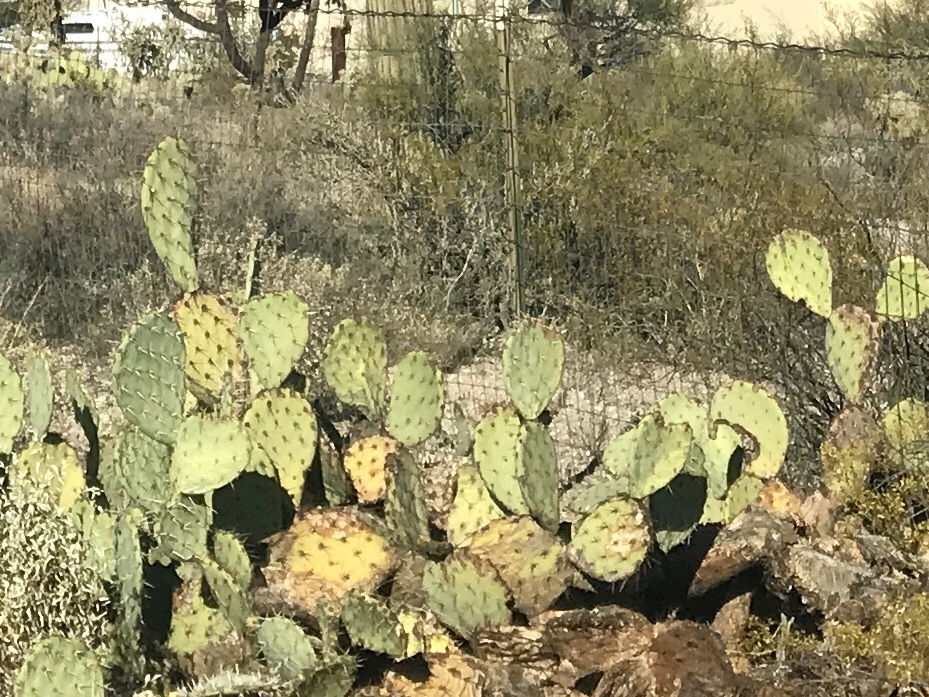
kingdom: Plantae
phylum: Tracheophyta
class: Magnoliopsida
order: Caryophyllales
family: Cactaceae
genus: Opuntia
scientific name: Opuntia phaeacantha
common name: New mexico prickly-pear
